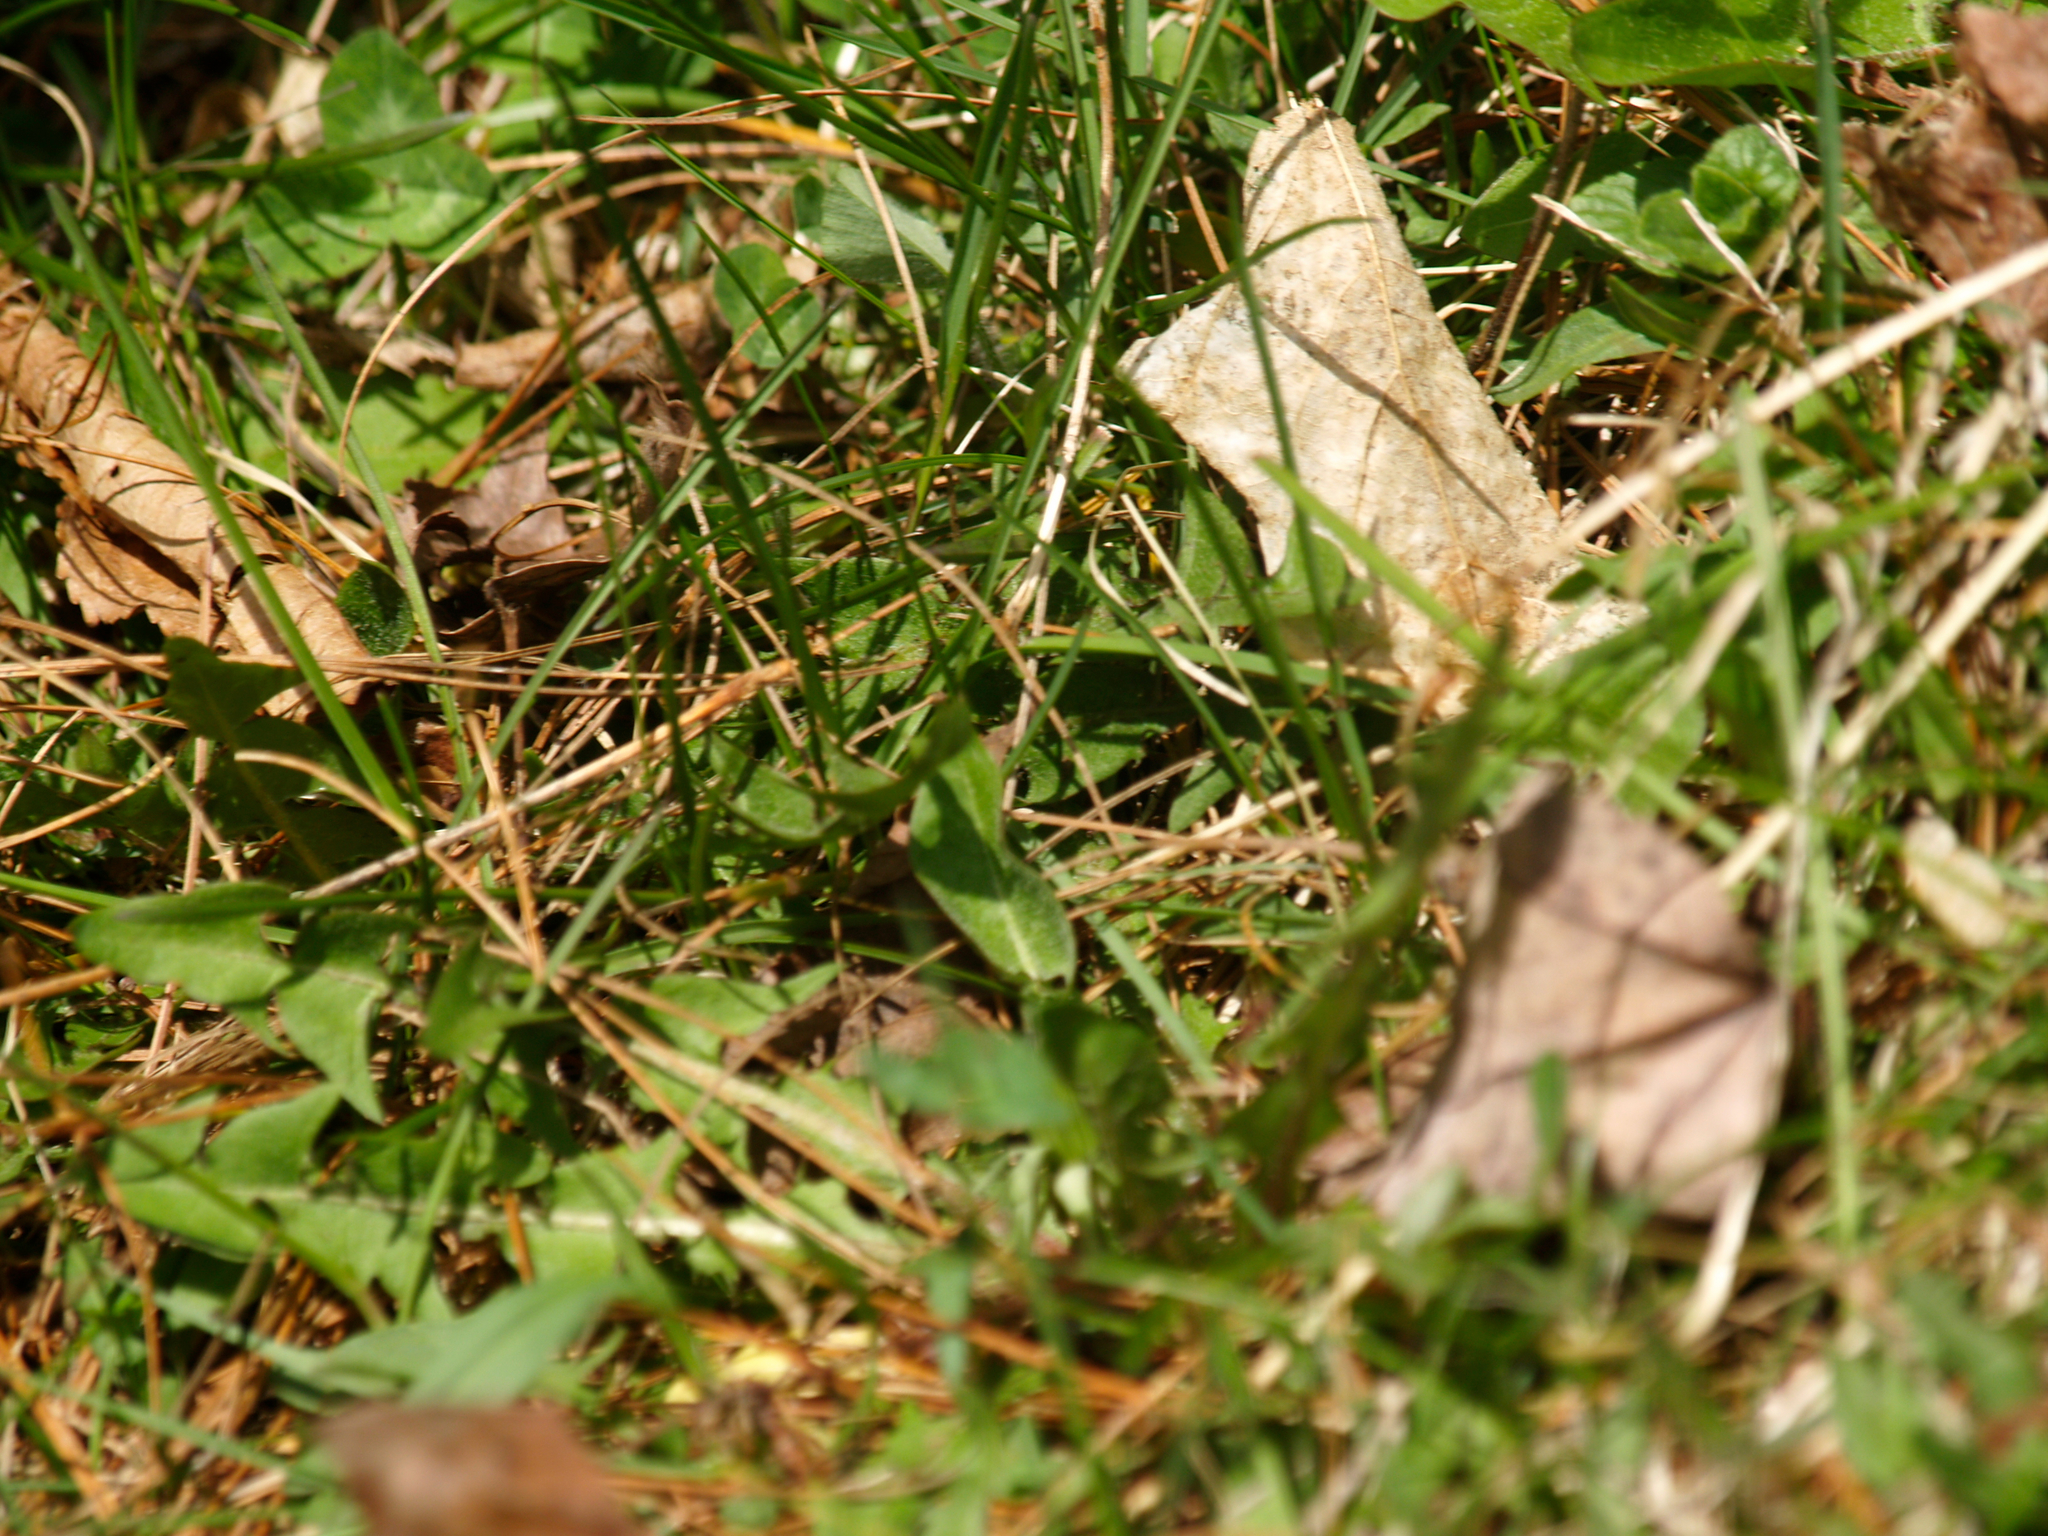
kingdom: Plantae
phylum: Tracheophyta
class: Magnoliopsida
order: Asterales
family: Asteraceae
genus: Taraxacum
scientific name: Taraxacum officinale
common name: Common dandelion
